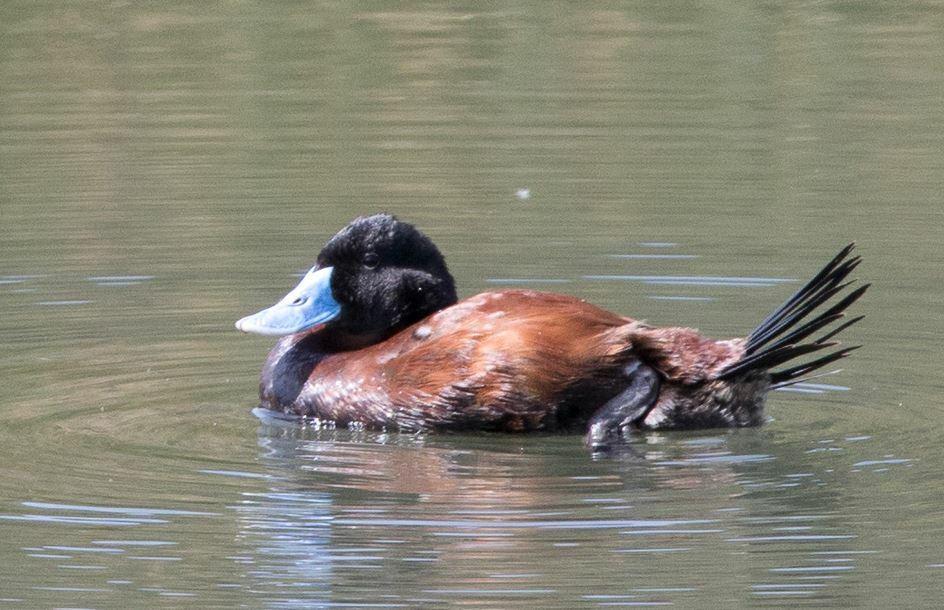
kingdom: Animalia
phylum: Chordata
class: Aves
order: Anseriformes
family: Anatidae
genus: Oxyura
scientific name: Oxyura ferruginea
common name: Andean duck
